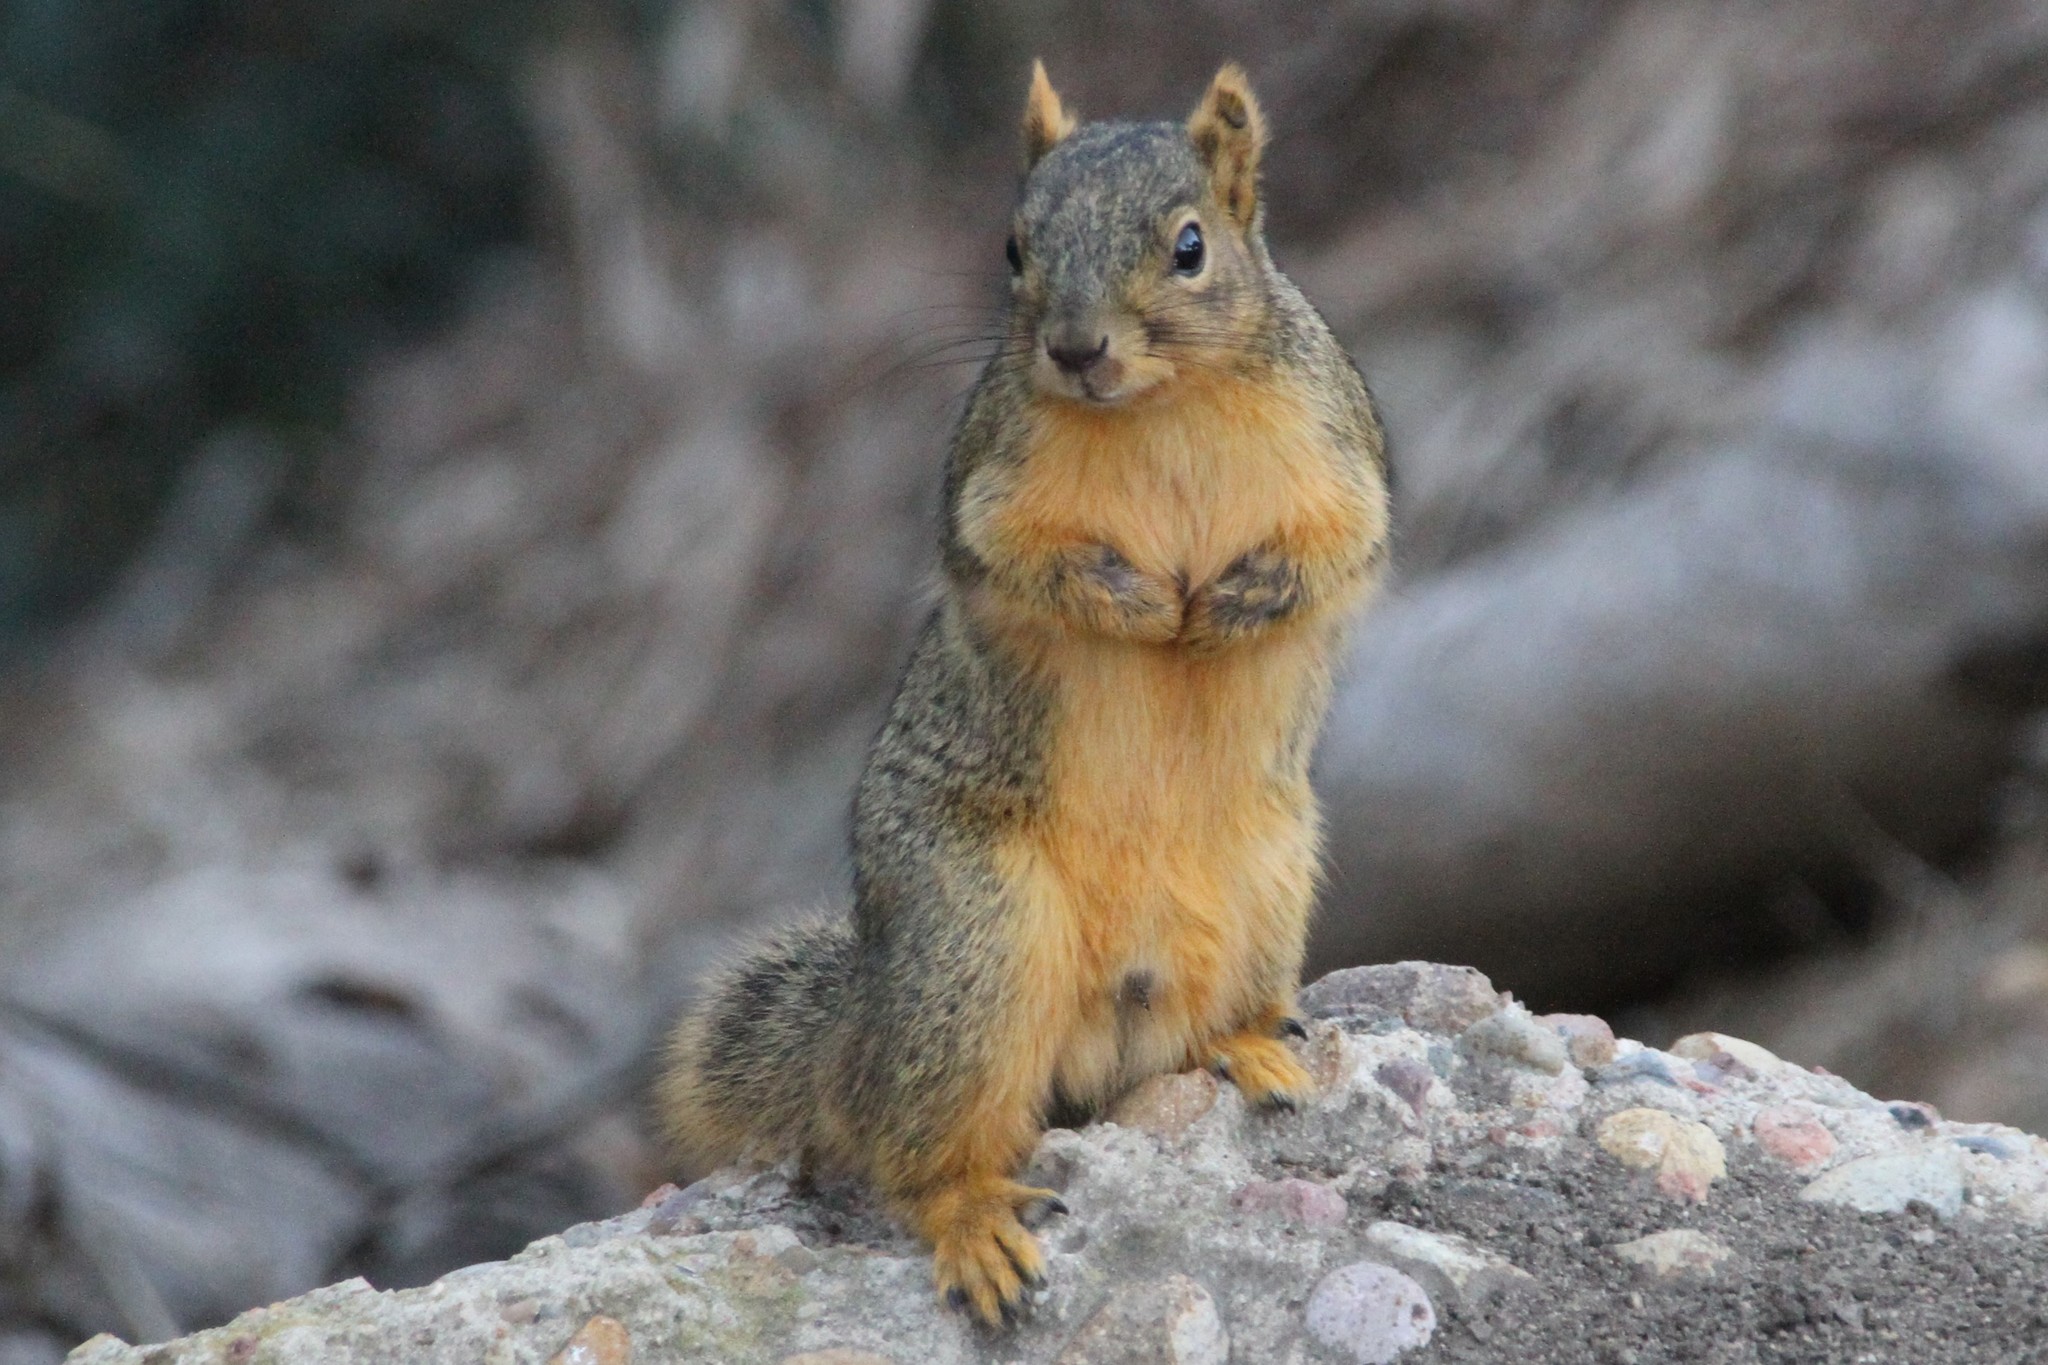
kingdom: Animalia
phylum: Chordata
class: Mammalia
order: Rodentia
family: Sciuridae
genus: Sciurus
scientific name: Sciurus niger
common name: Fox squirrel
